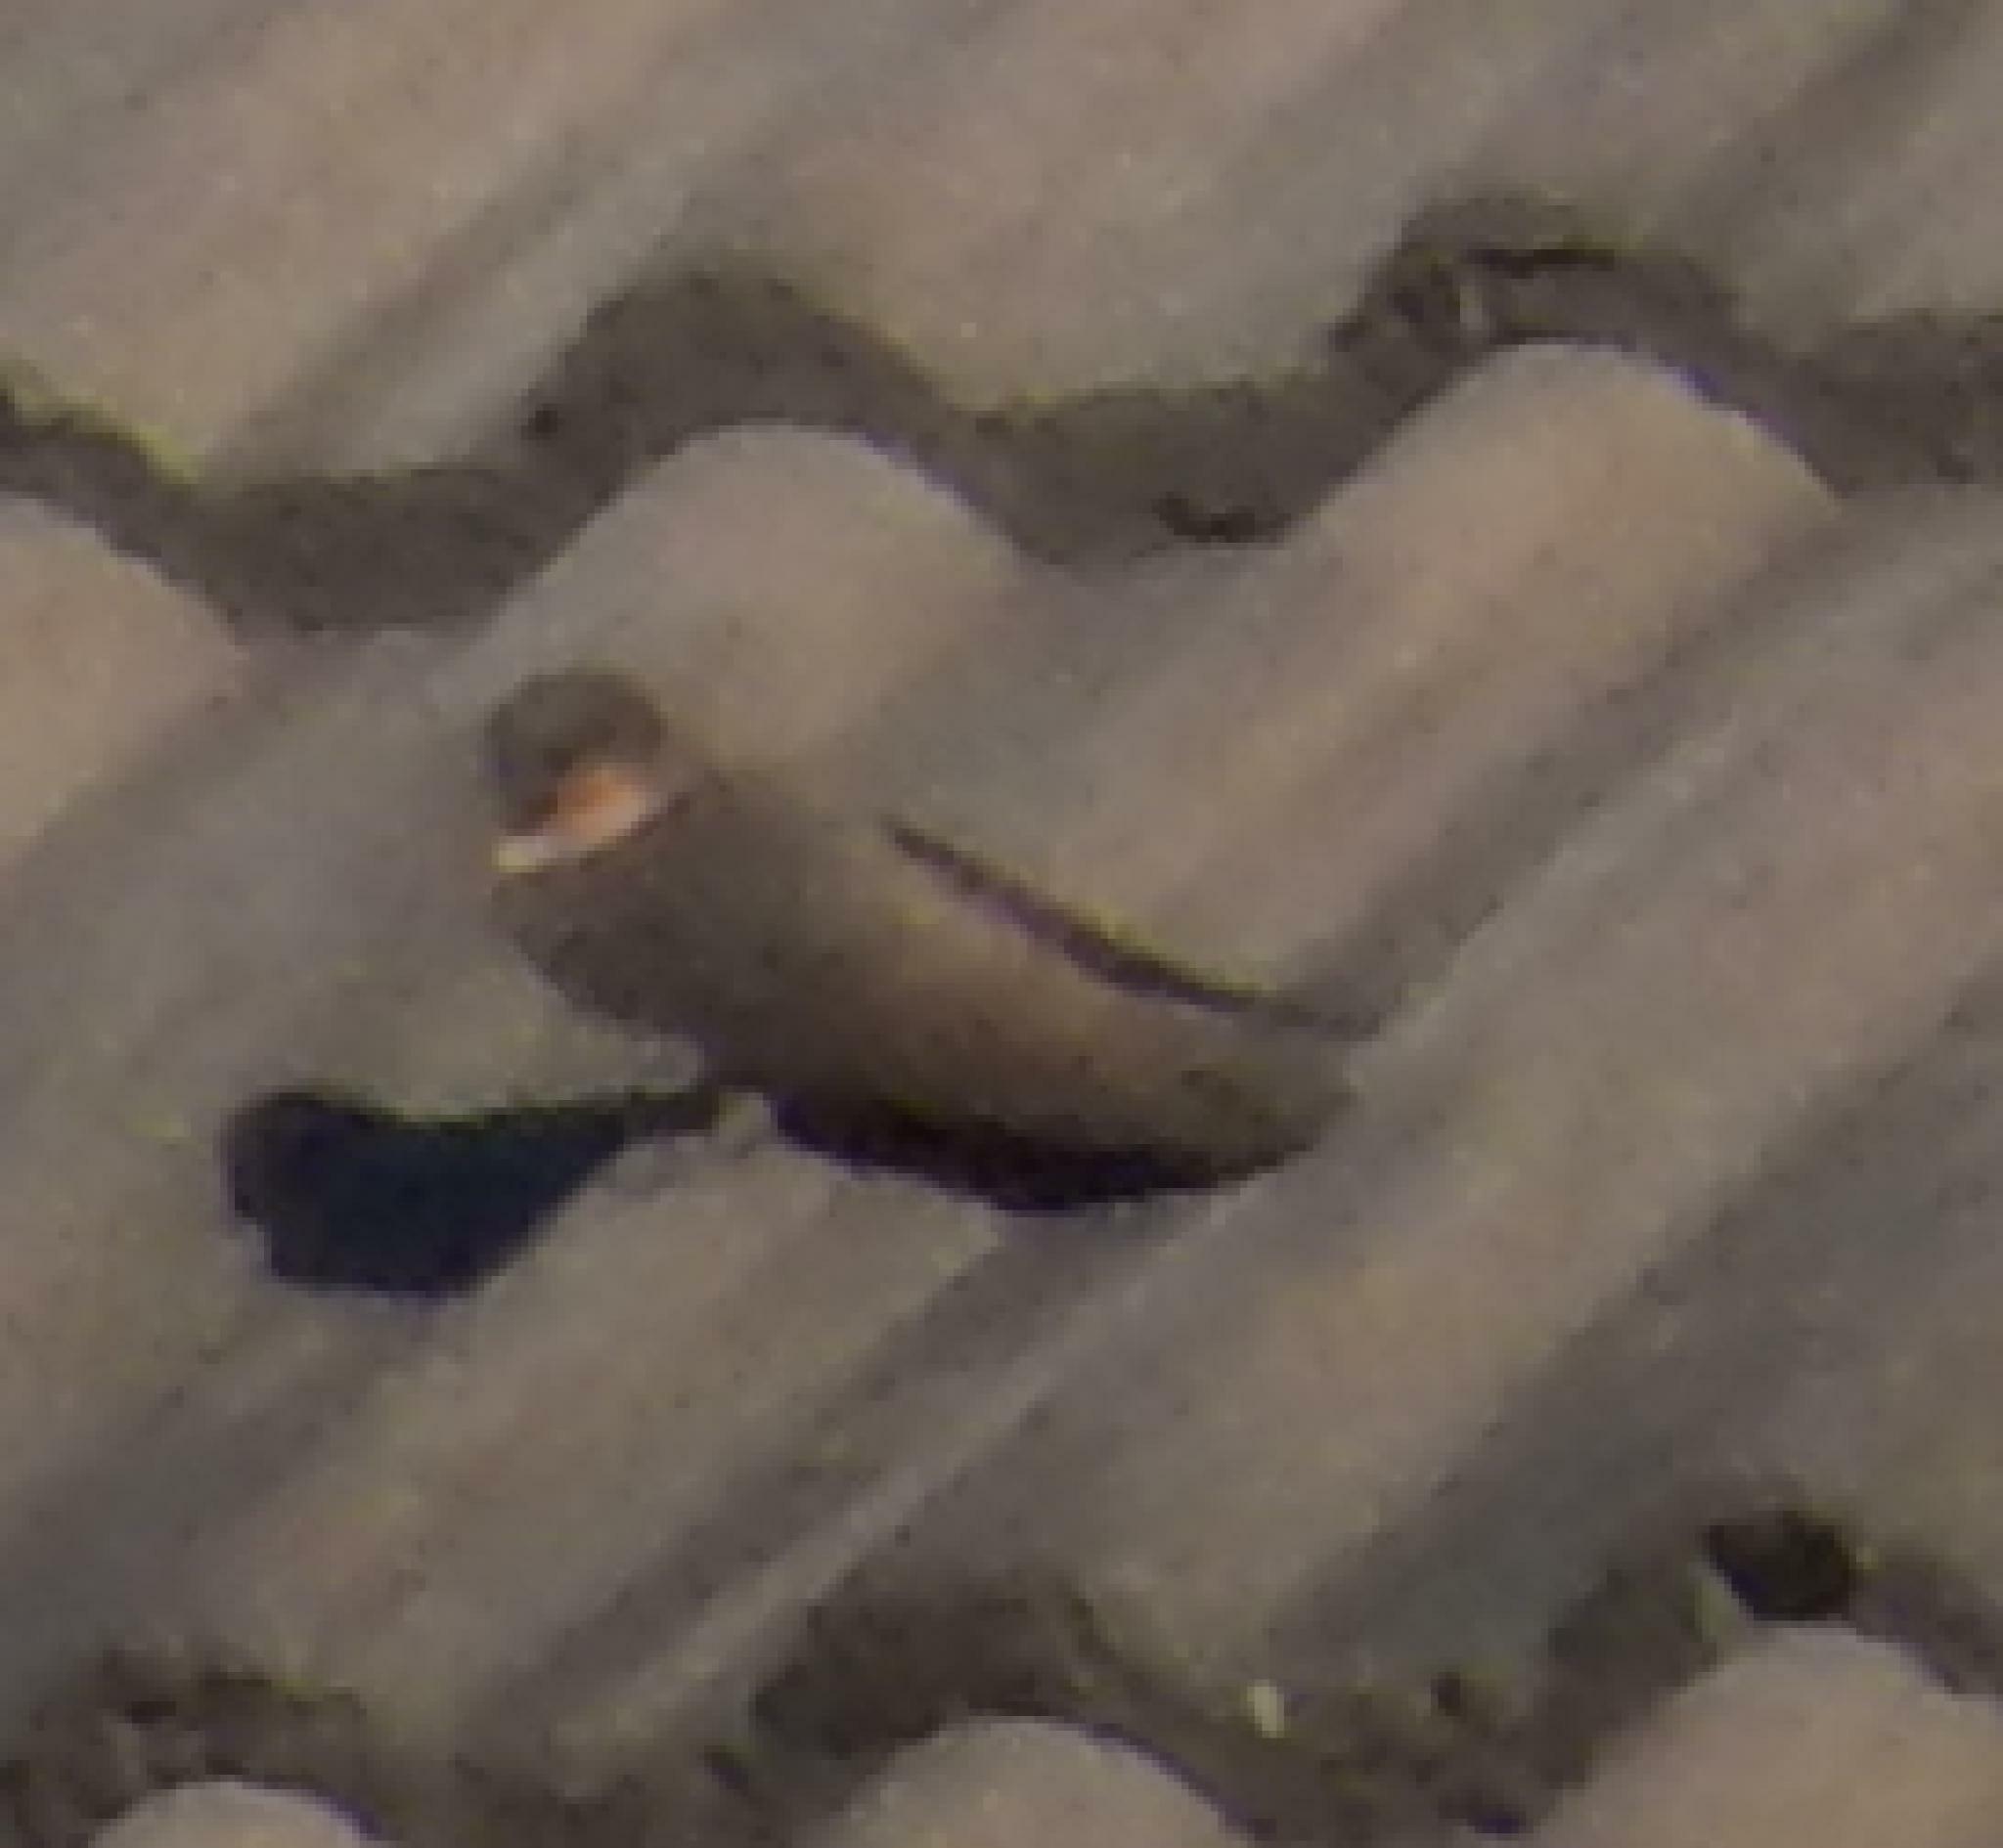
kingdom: Animalia
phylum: Chordata
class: Aves
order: Passeriformes
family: Hirundinidae
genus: Ptyonoprogne
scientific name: Ptyonoprogne fuligula
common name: Rock martin
